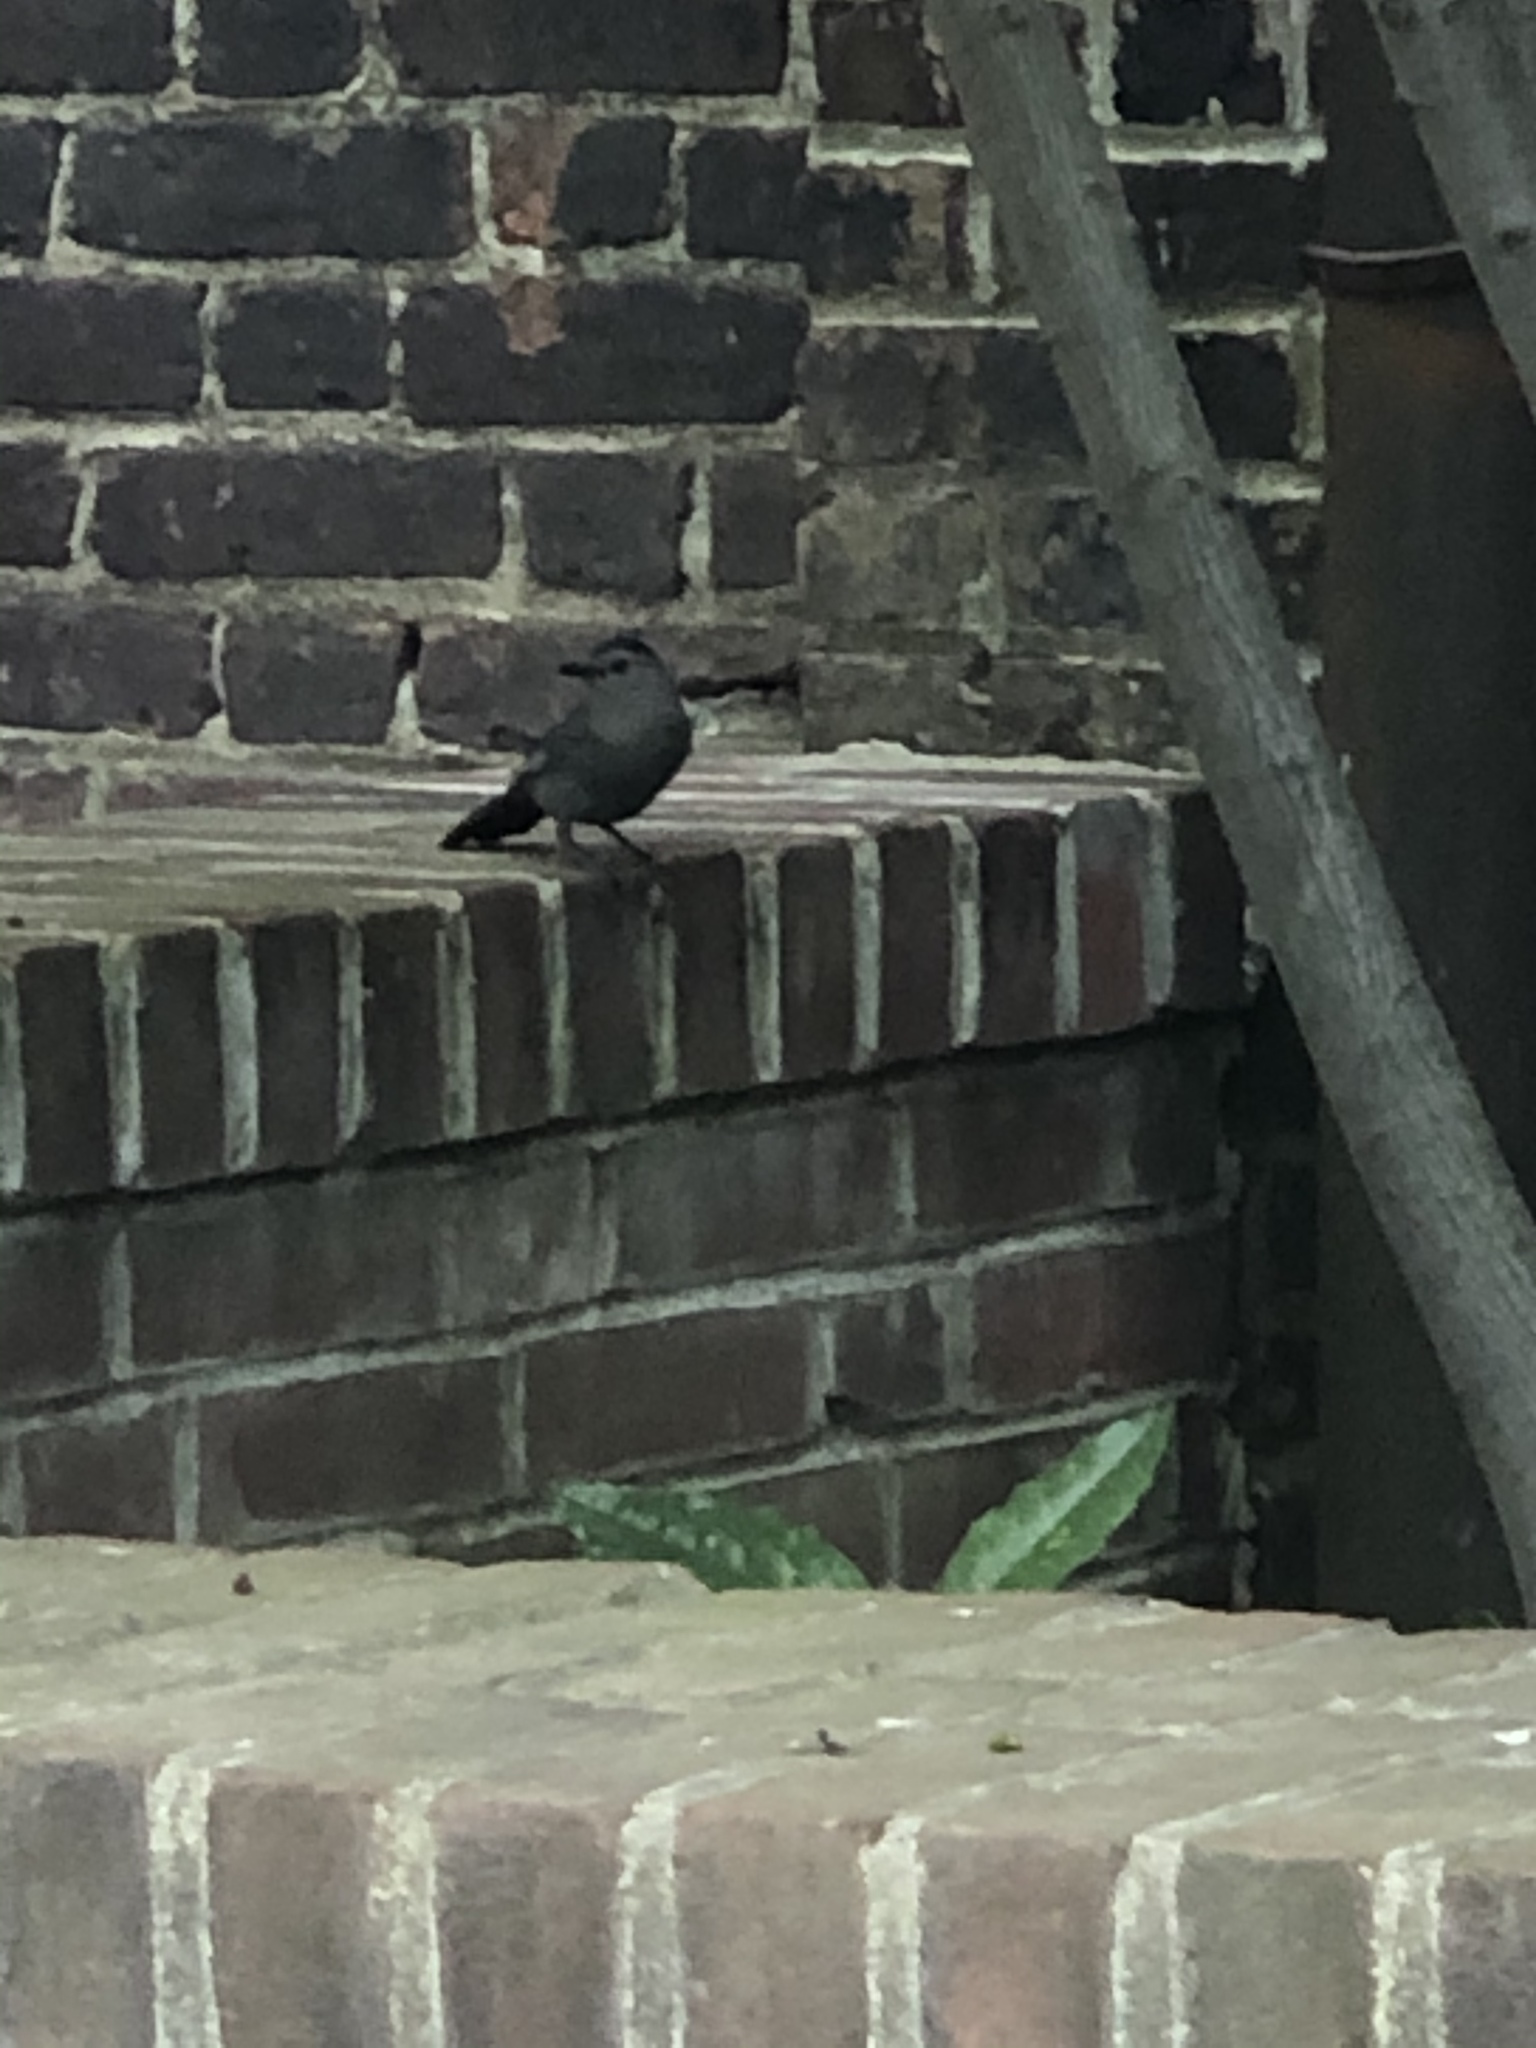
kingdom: Animalia
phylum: Chordata
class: Aves
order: Passeriformes
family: Mimidae
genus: Dumetella
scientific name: Dumetella carolinensis
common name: Gray catbird
